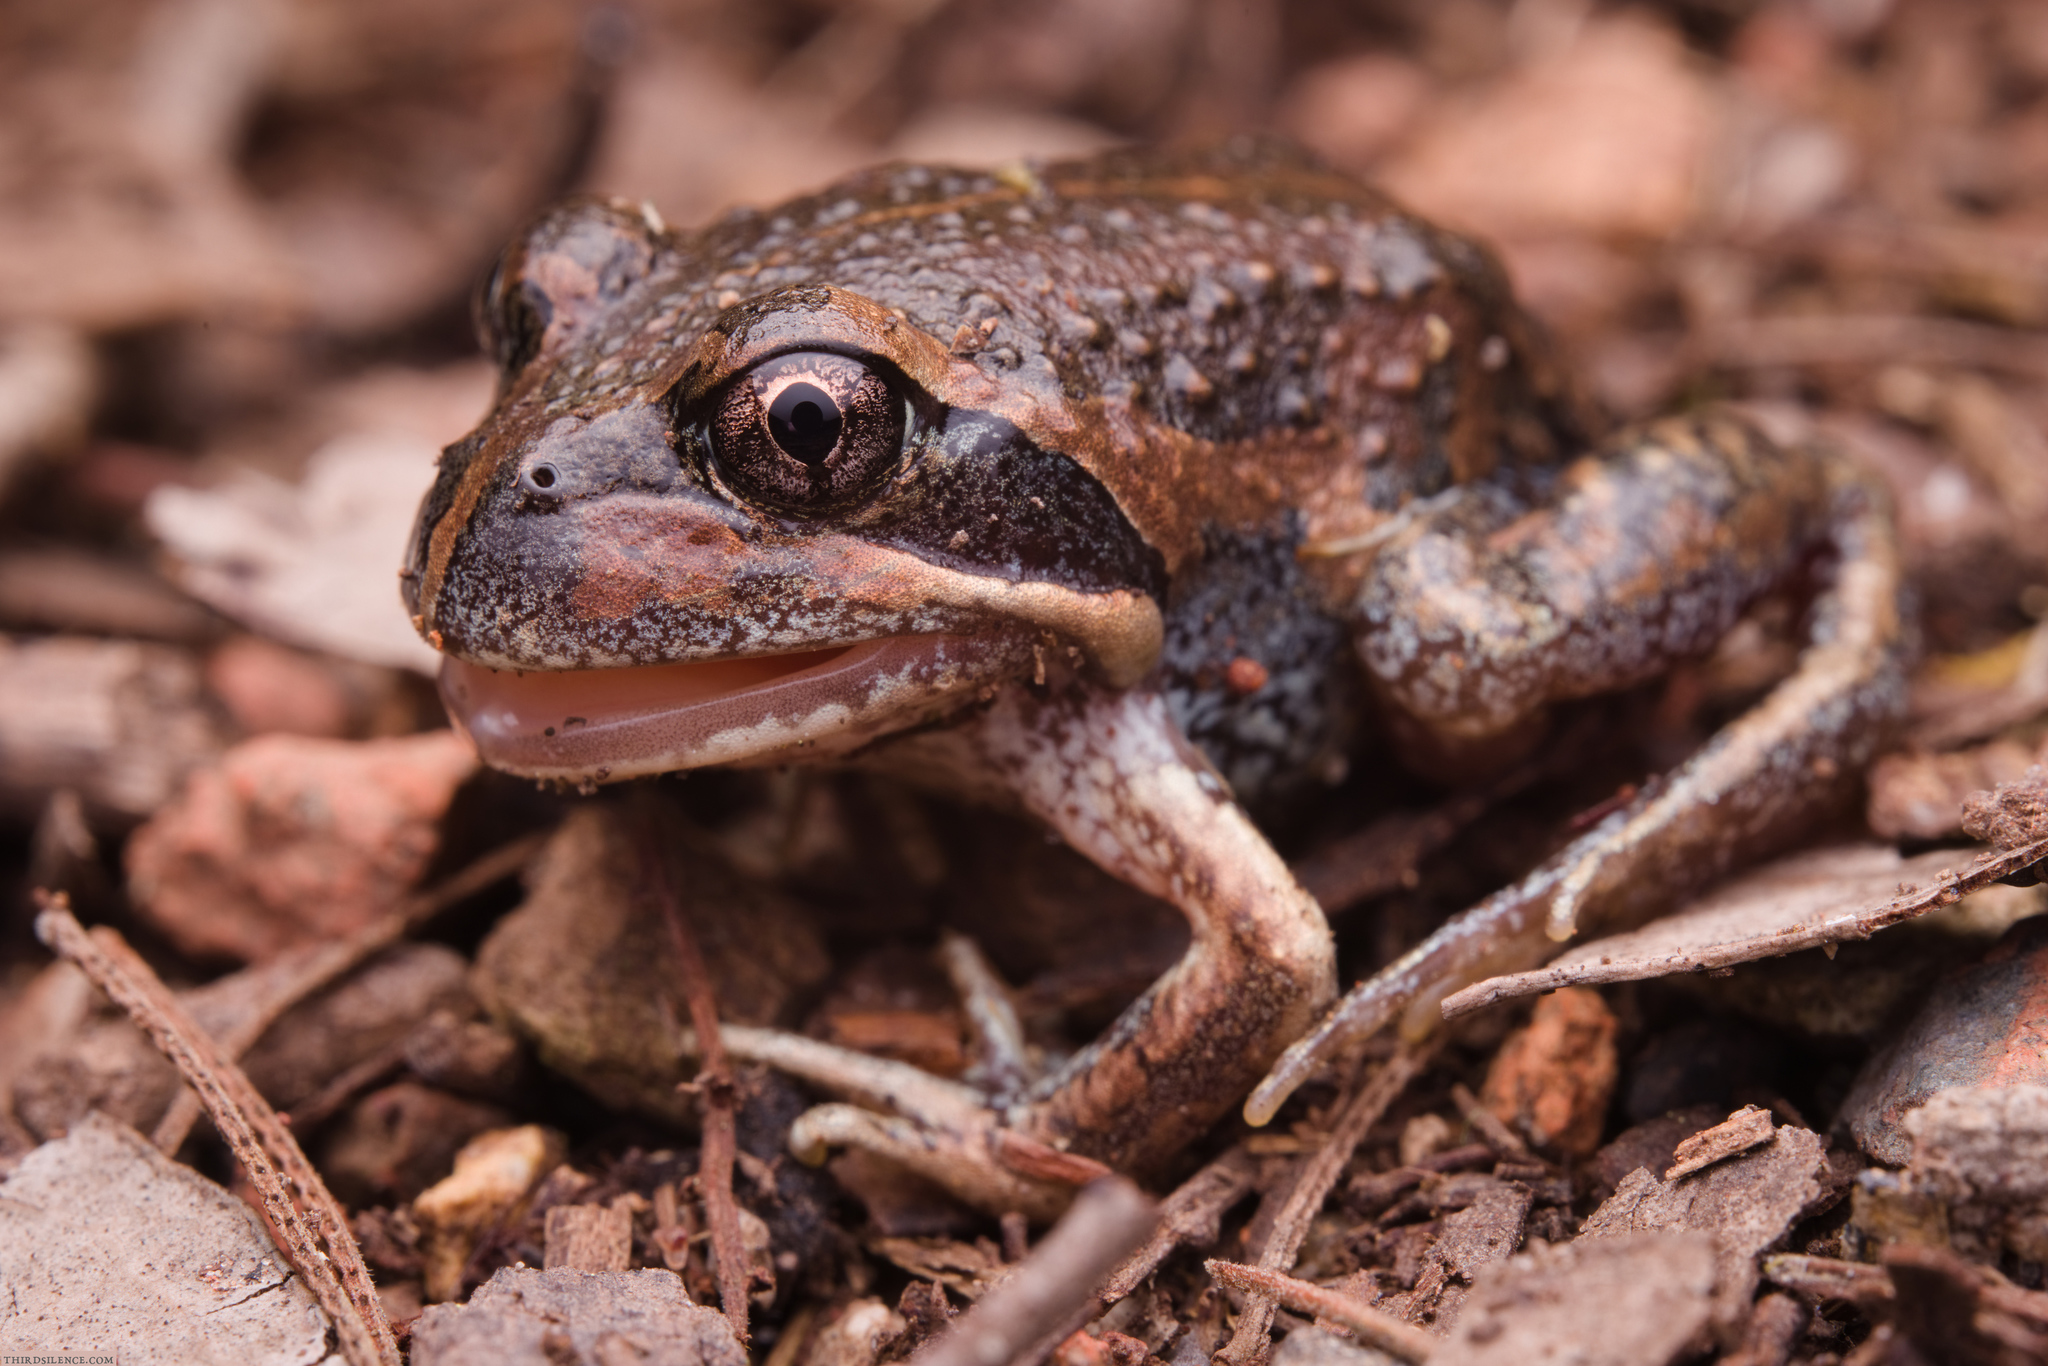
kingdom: Animalia
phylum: Chordata
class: Amphibia
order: Anura
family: Limnodynastidae
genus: Limnodynastes
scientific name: Limnodynastes dumerilii
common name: Banjo frog
